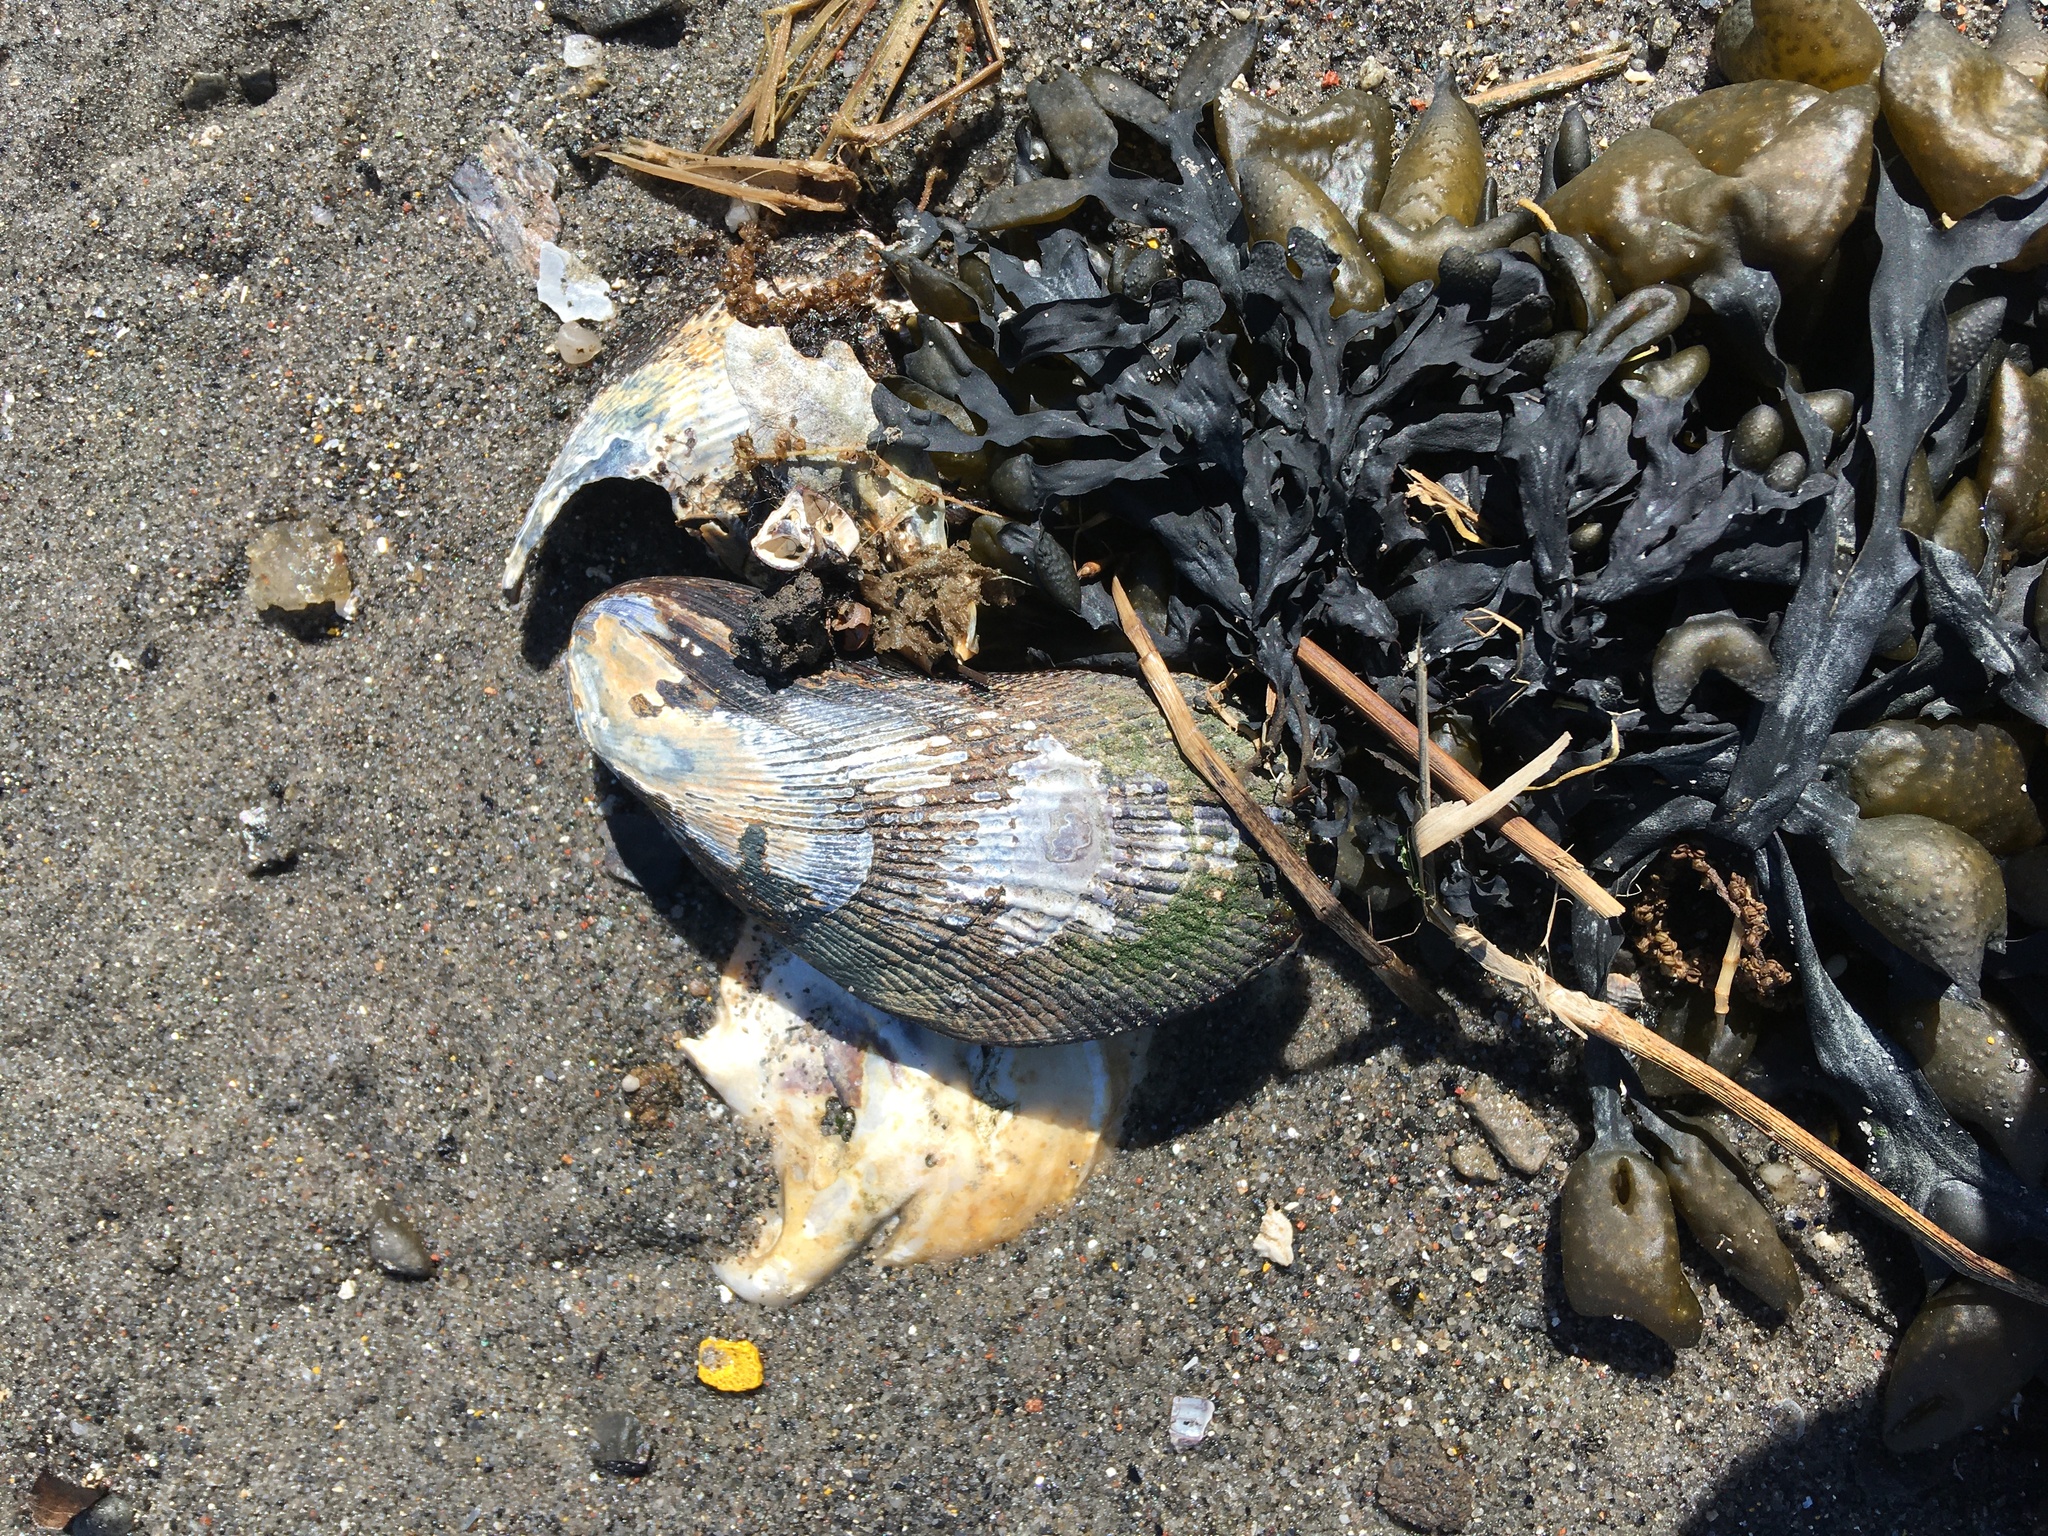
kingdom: Animalia
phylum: Mollusca
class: Bivalvia
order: Mytilida
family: Mytilidae
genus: Geukensia
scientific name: Geukensia demissa
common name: Ribbed mussel
